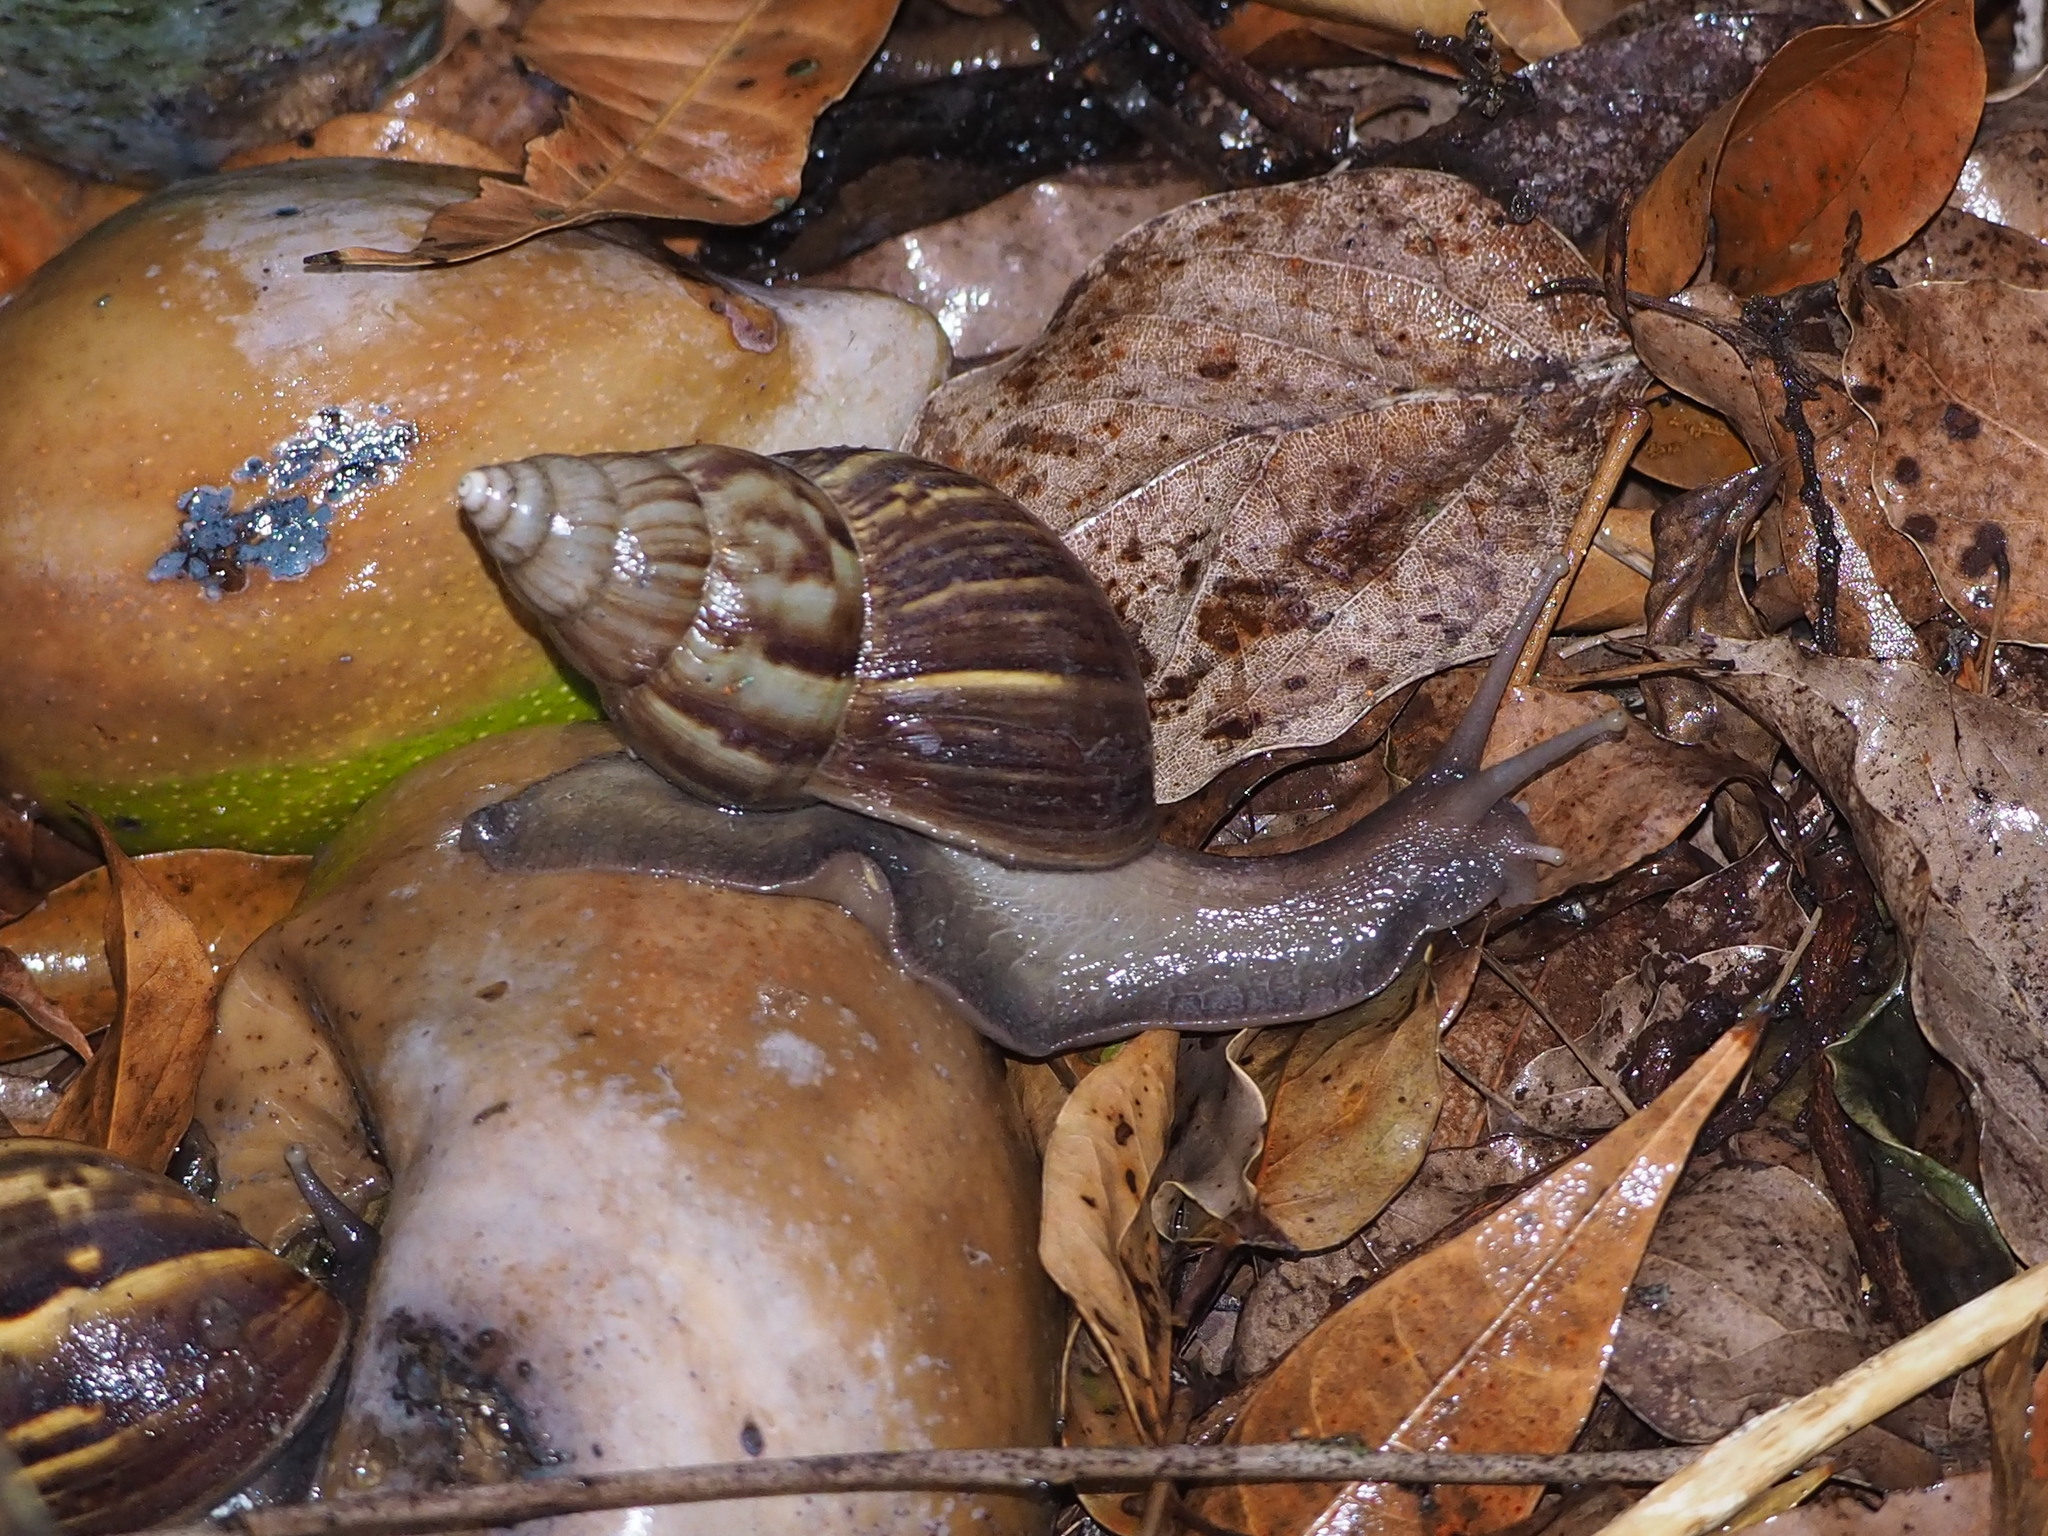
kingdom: Animalia
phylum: Mollusca
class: Gastropoda
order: Stylommatophora
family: Achatinidae
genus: Lissachatina
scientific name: Lissachatina fulica
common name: Giant african snail
